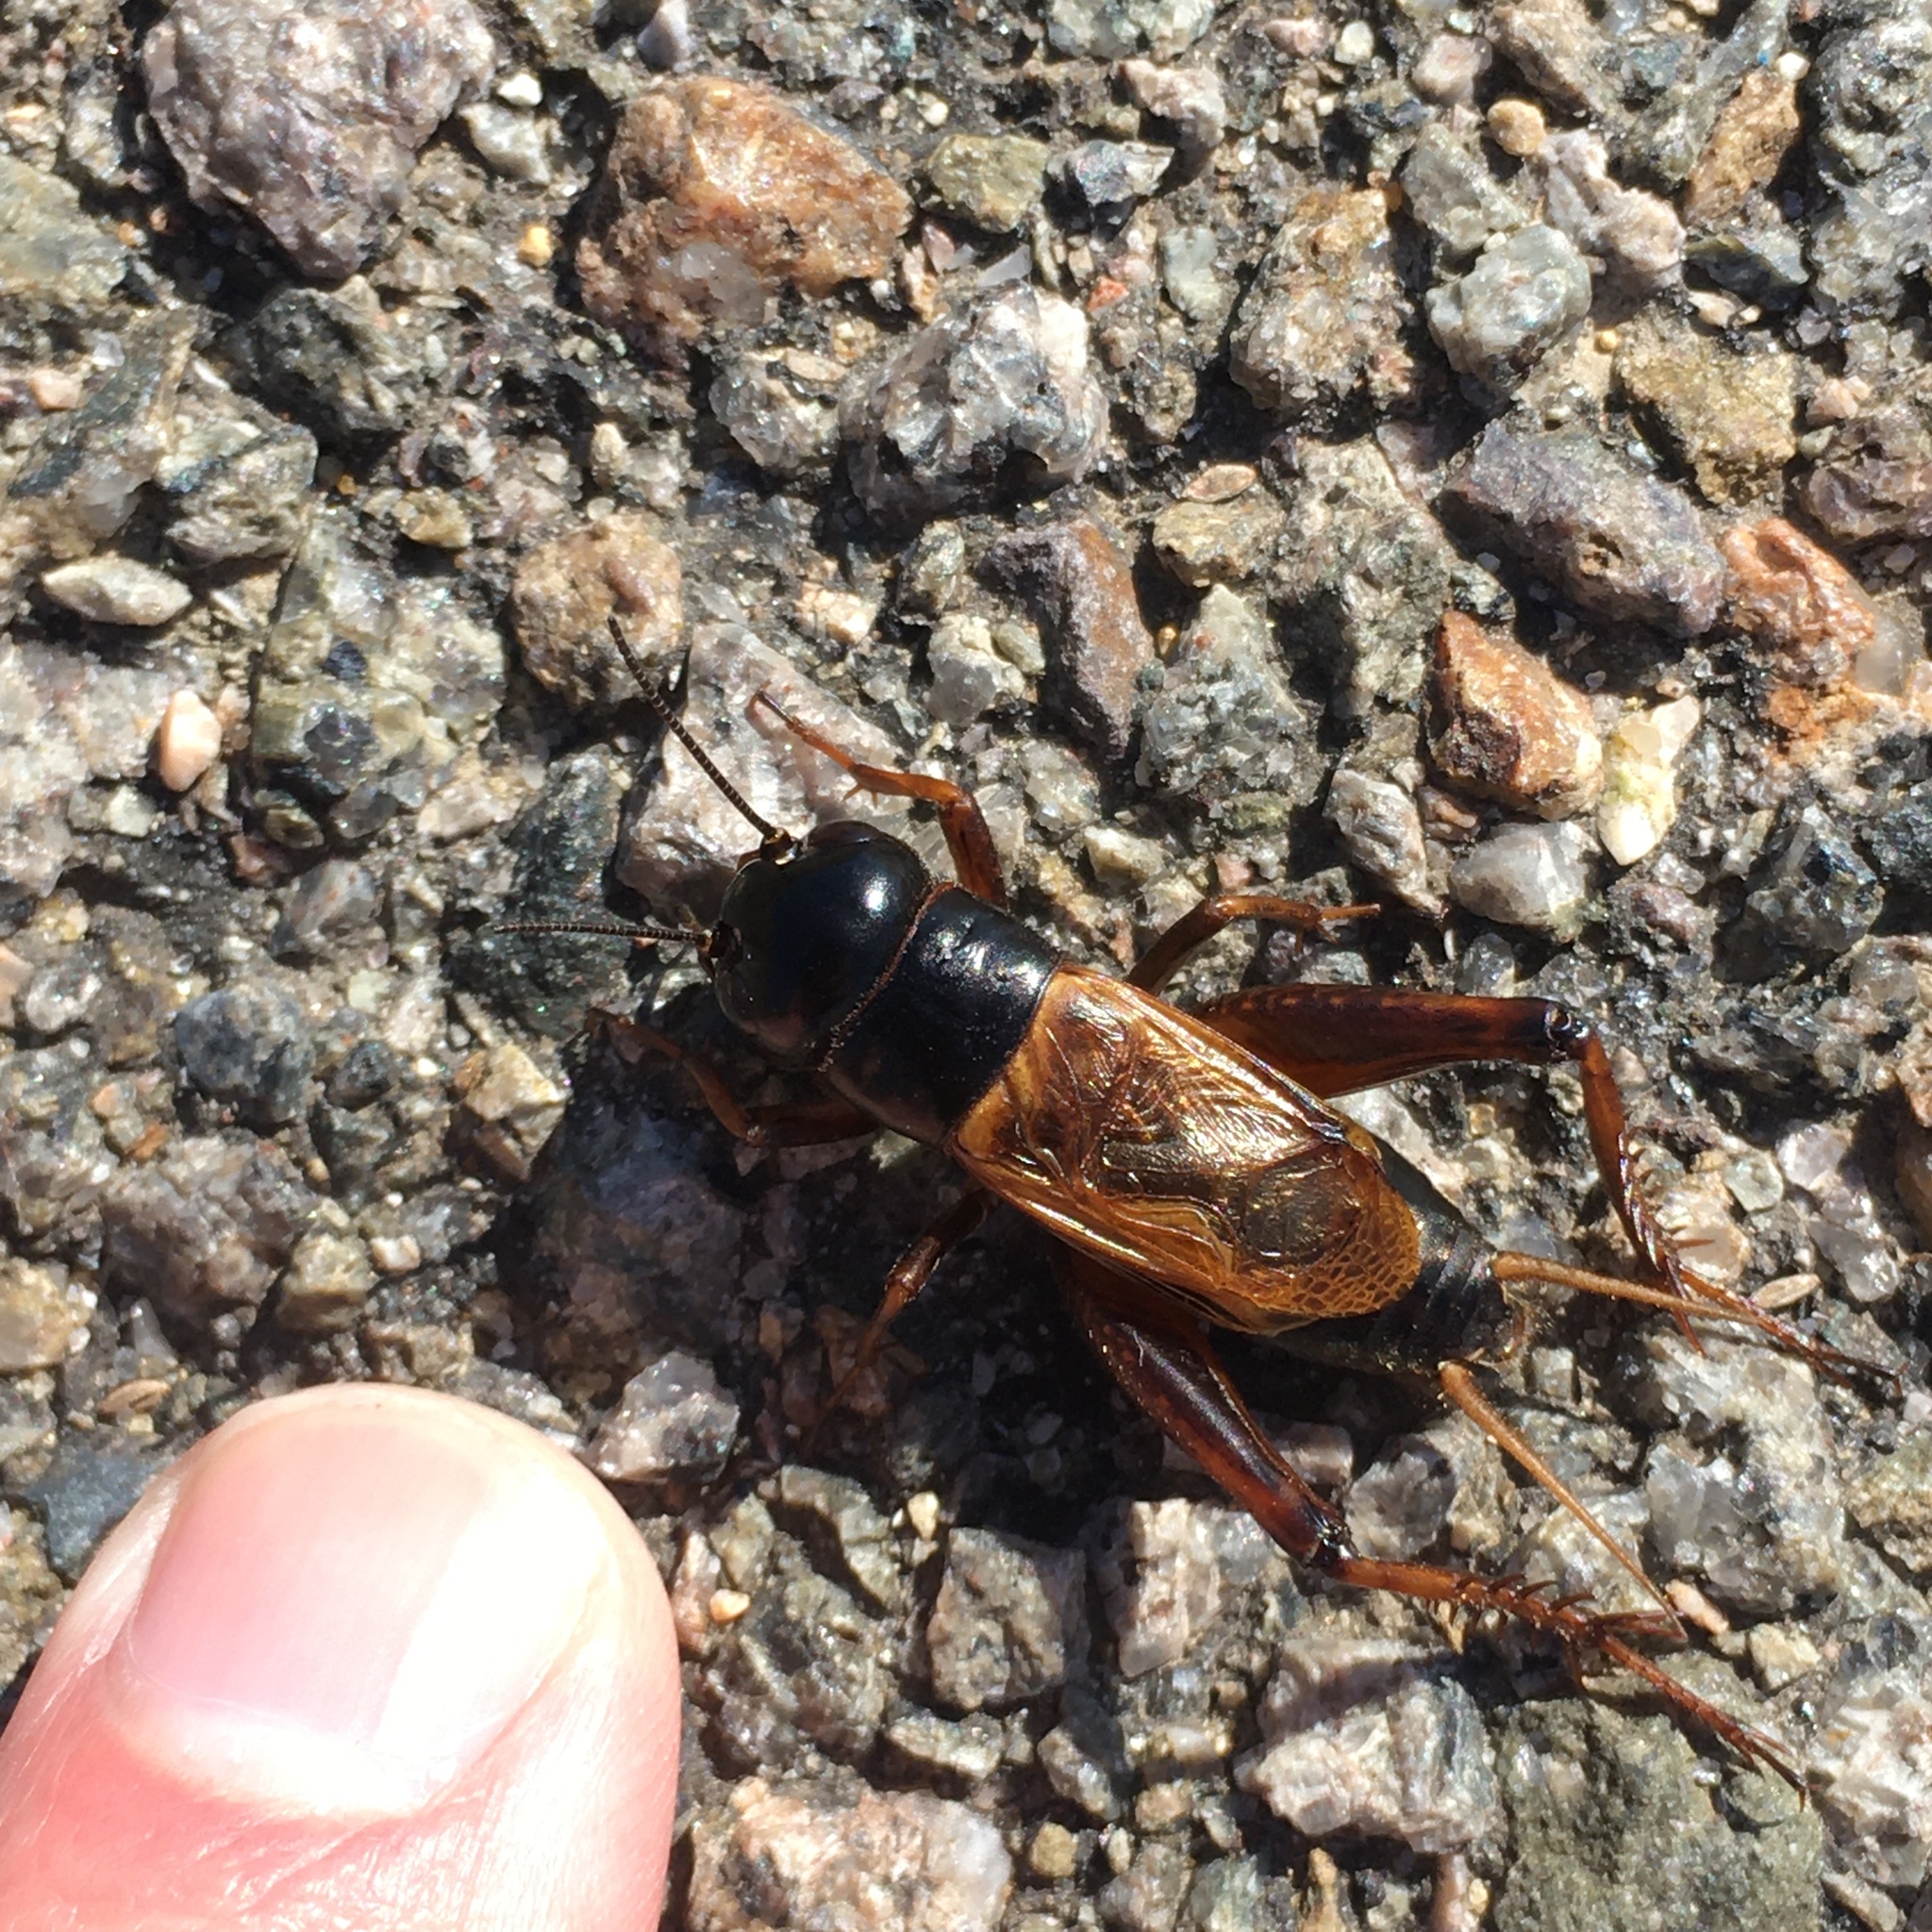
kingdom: Animalia
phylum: Arthropoda
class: Insecta
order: Orthoptera
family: Gryllidae
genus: Gryllus
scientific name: Gryllus firmus
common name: Sand field cricket
